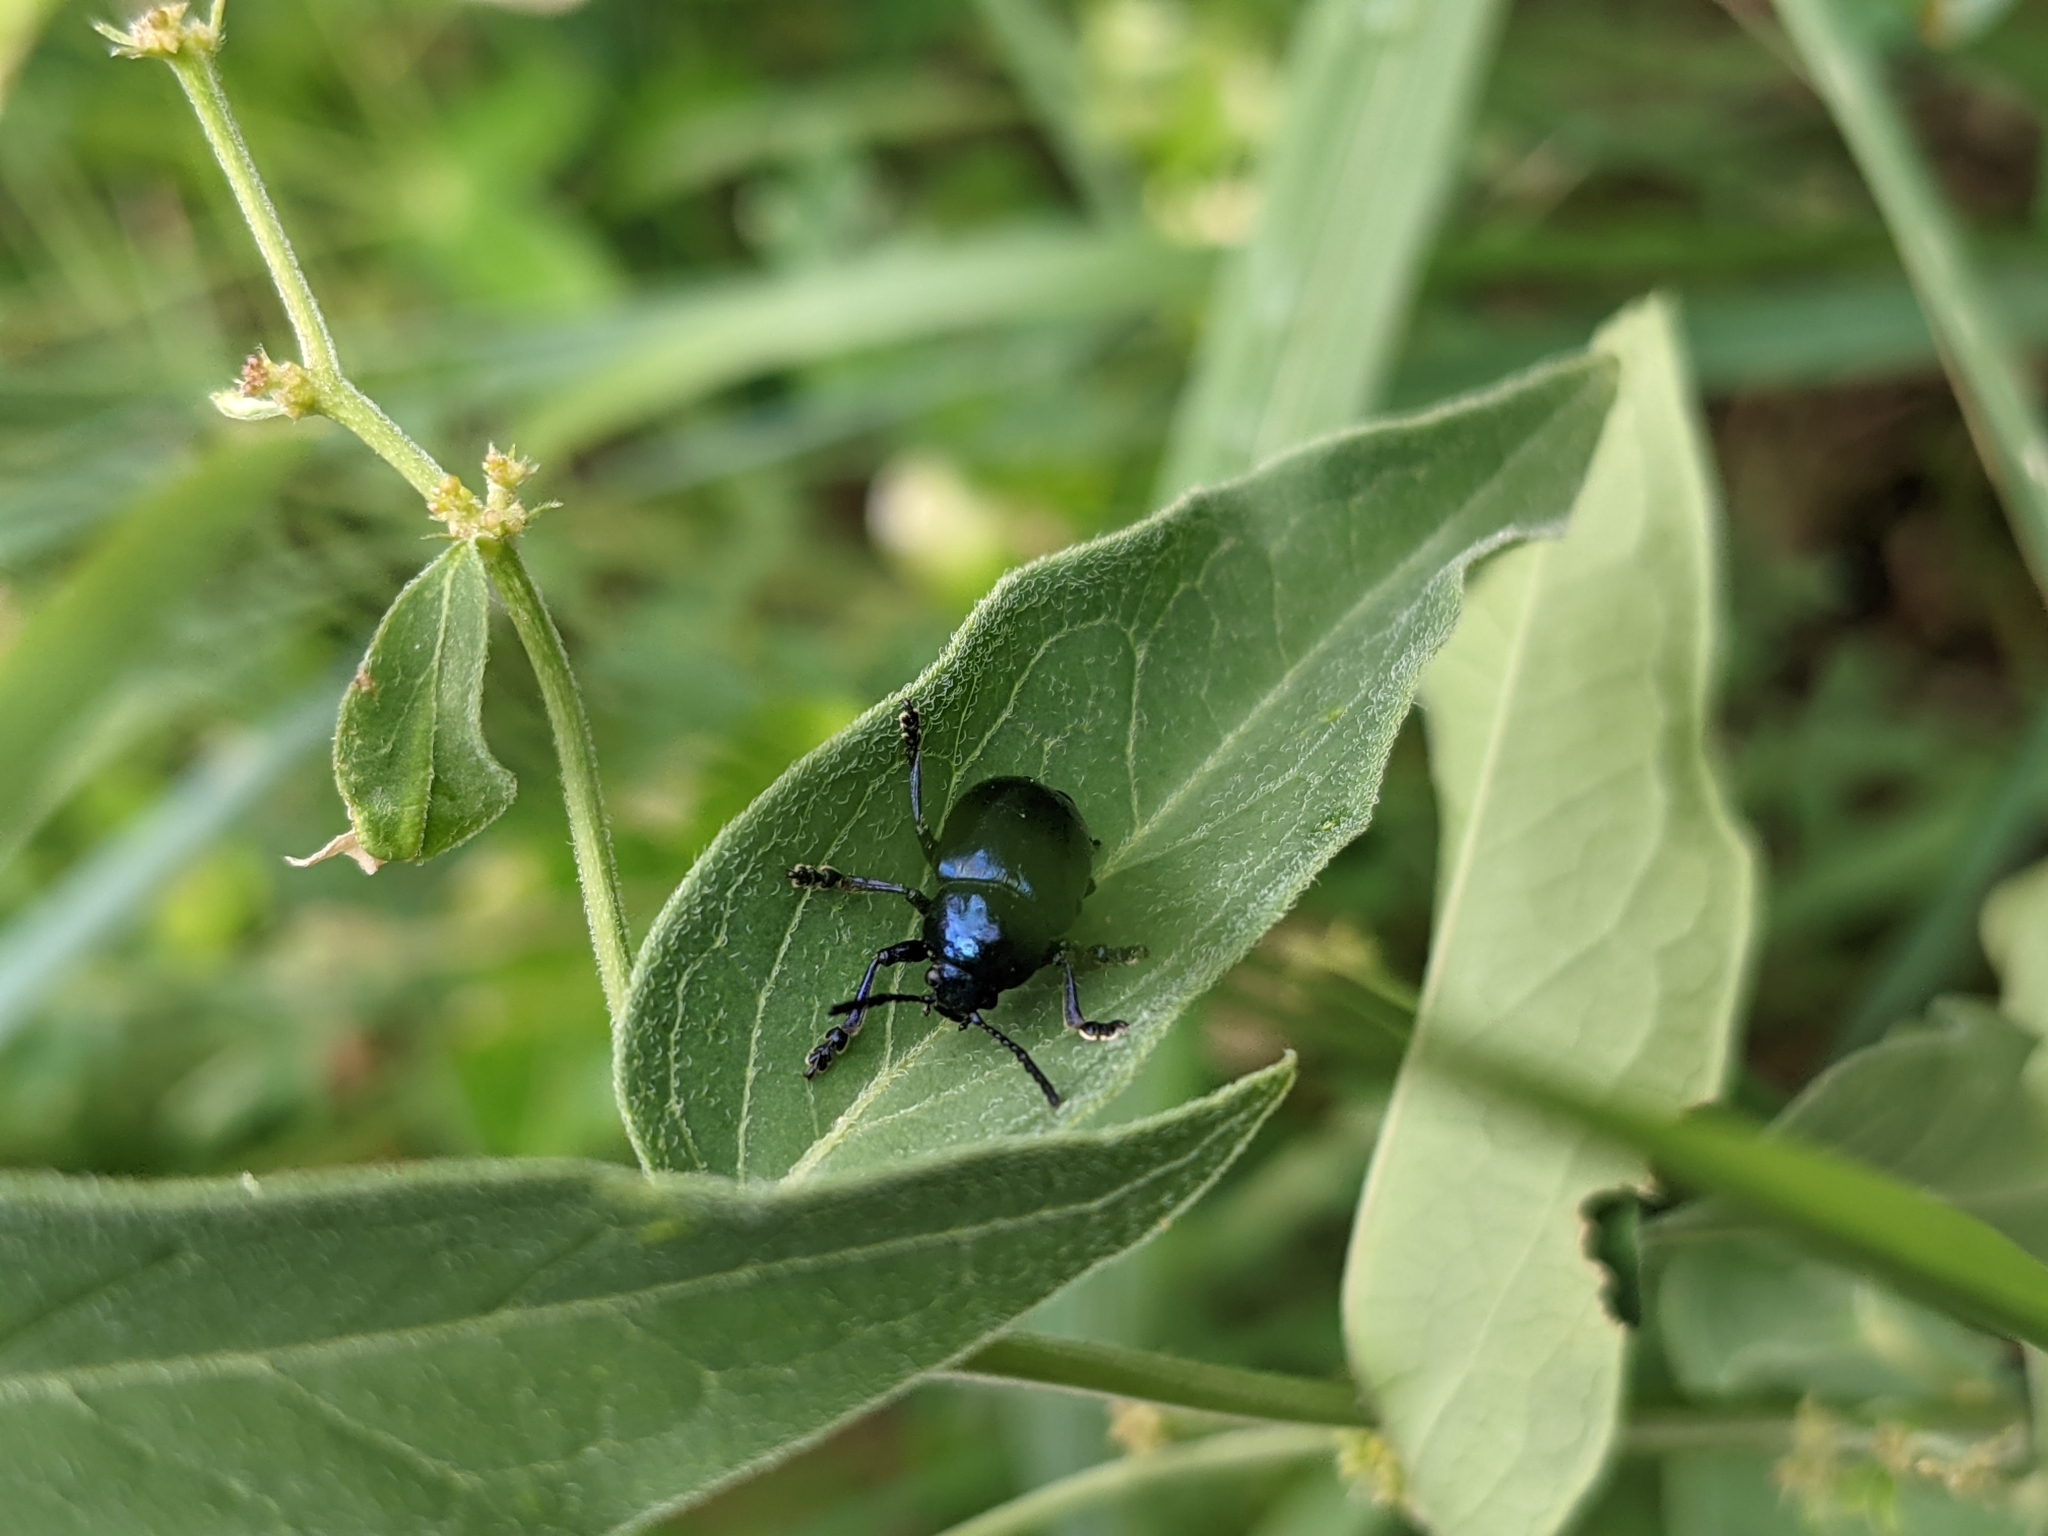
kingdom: Animalia
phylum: Arthropoda
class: Insecta
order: Coleoptera
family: Chrysomelidae
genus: Chrysochus
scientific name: Chrysochus asclepiadeus
